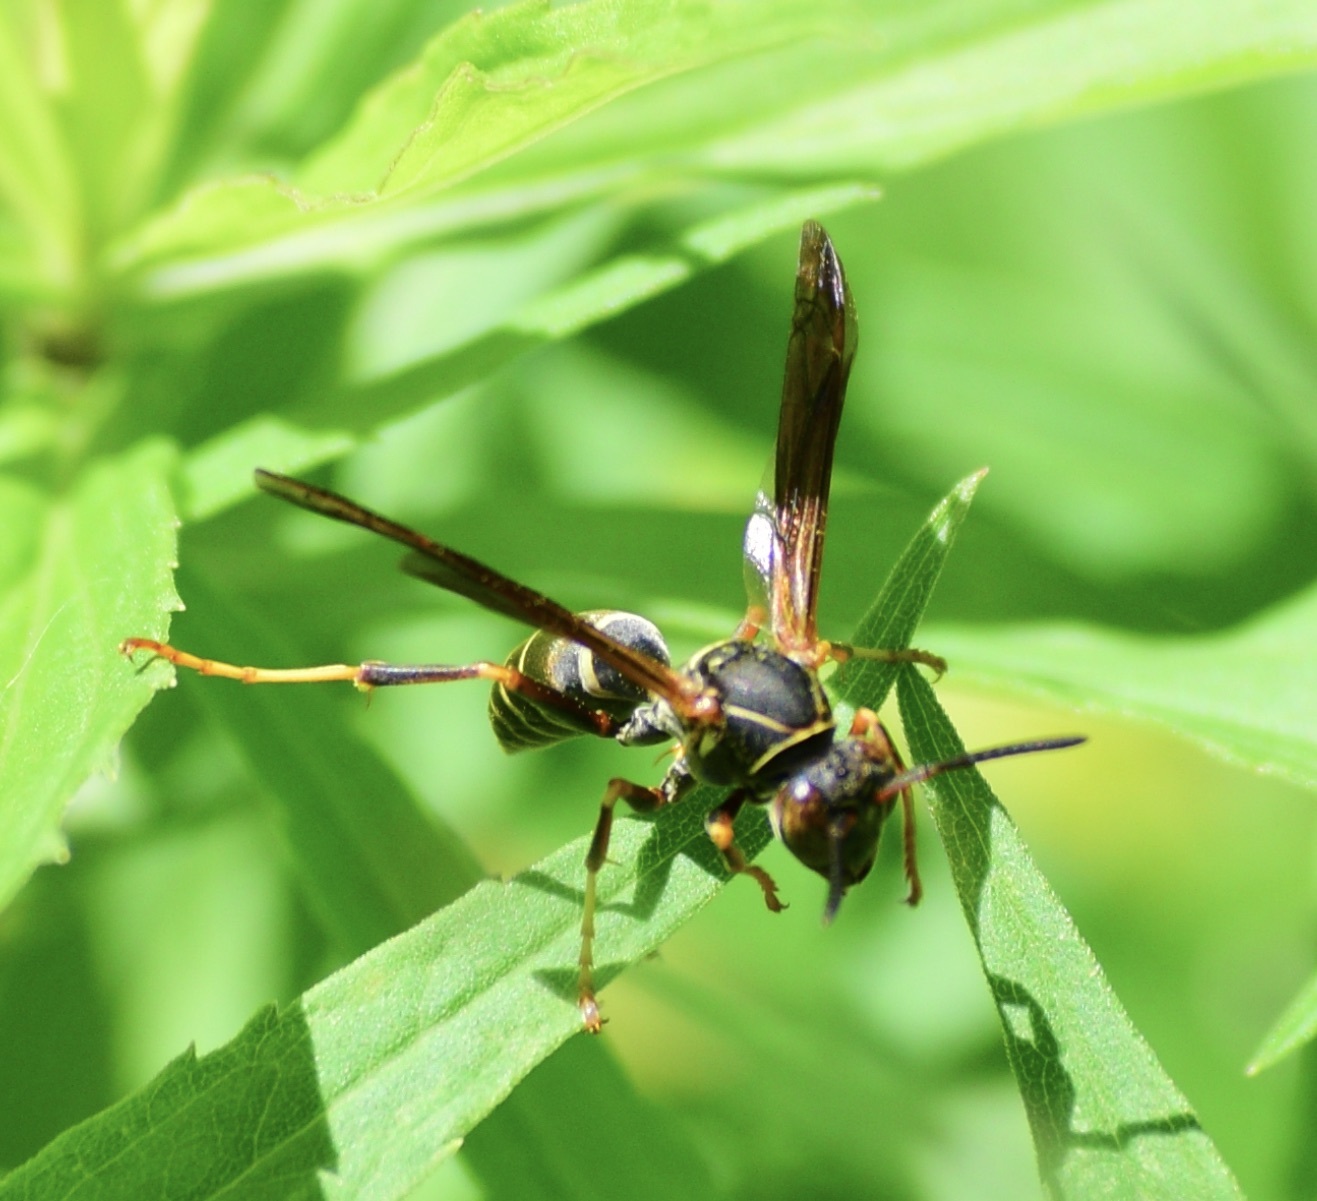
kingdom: Animalia
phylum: Arthropoda
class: Insecta
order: Hymenoptera
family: Eumenidae
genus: Polistes
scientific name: Polistes fuscatus
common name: Dark paper wasp
